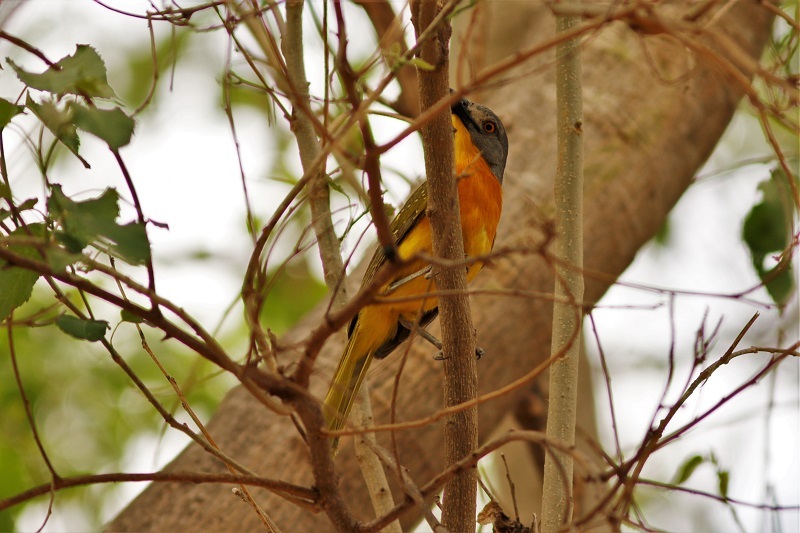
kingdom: Animalia
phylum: Chordata
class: Aves
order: Passeriformes
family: Malaconotidae
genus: Malaconotus
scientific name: Malaconotus blanchoti
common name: Grey-headed bushshrike
